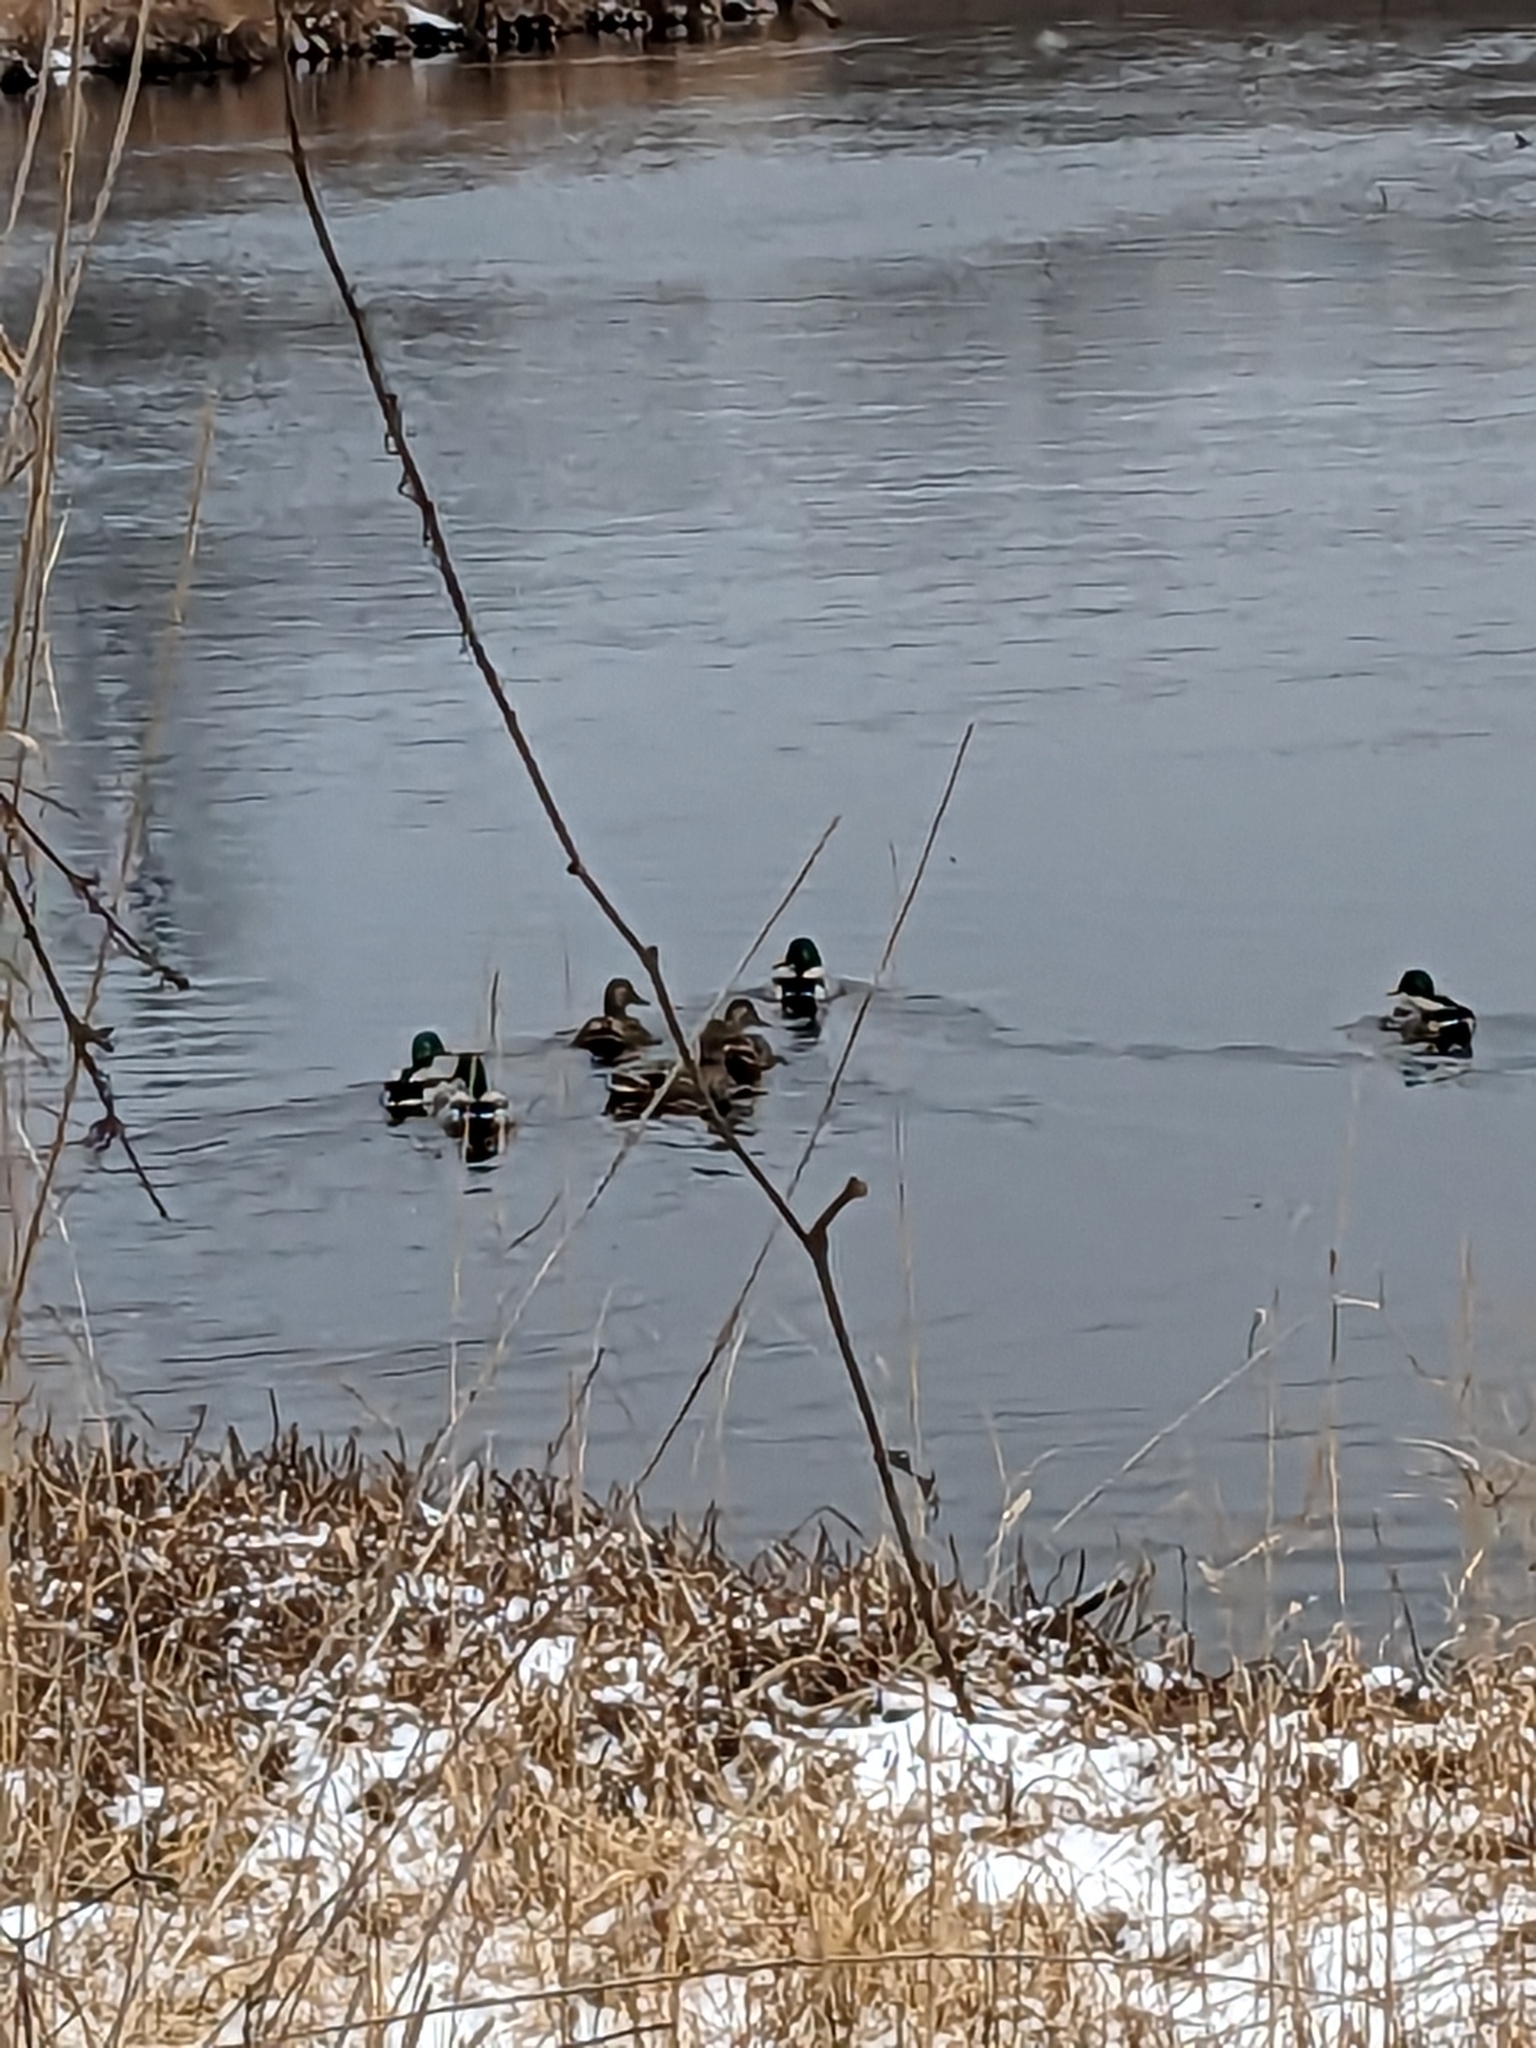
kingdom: Animalia
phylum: Chordata
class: Aves
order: Anseriformes
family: Anatidae
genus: Anas
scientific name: Anas platyrhynchos
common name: Mallard
